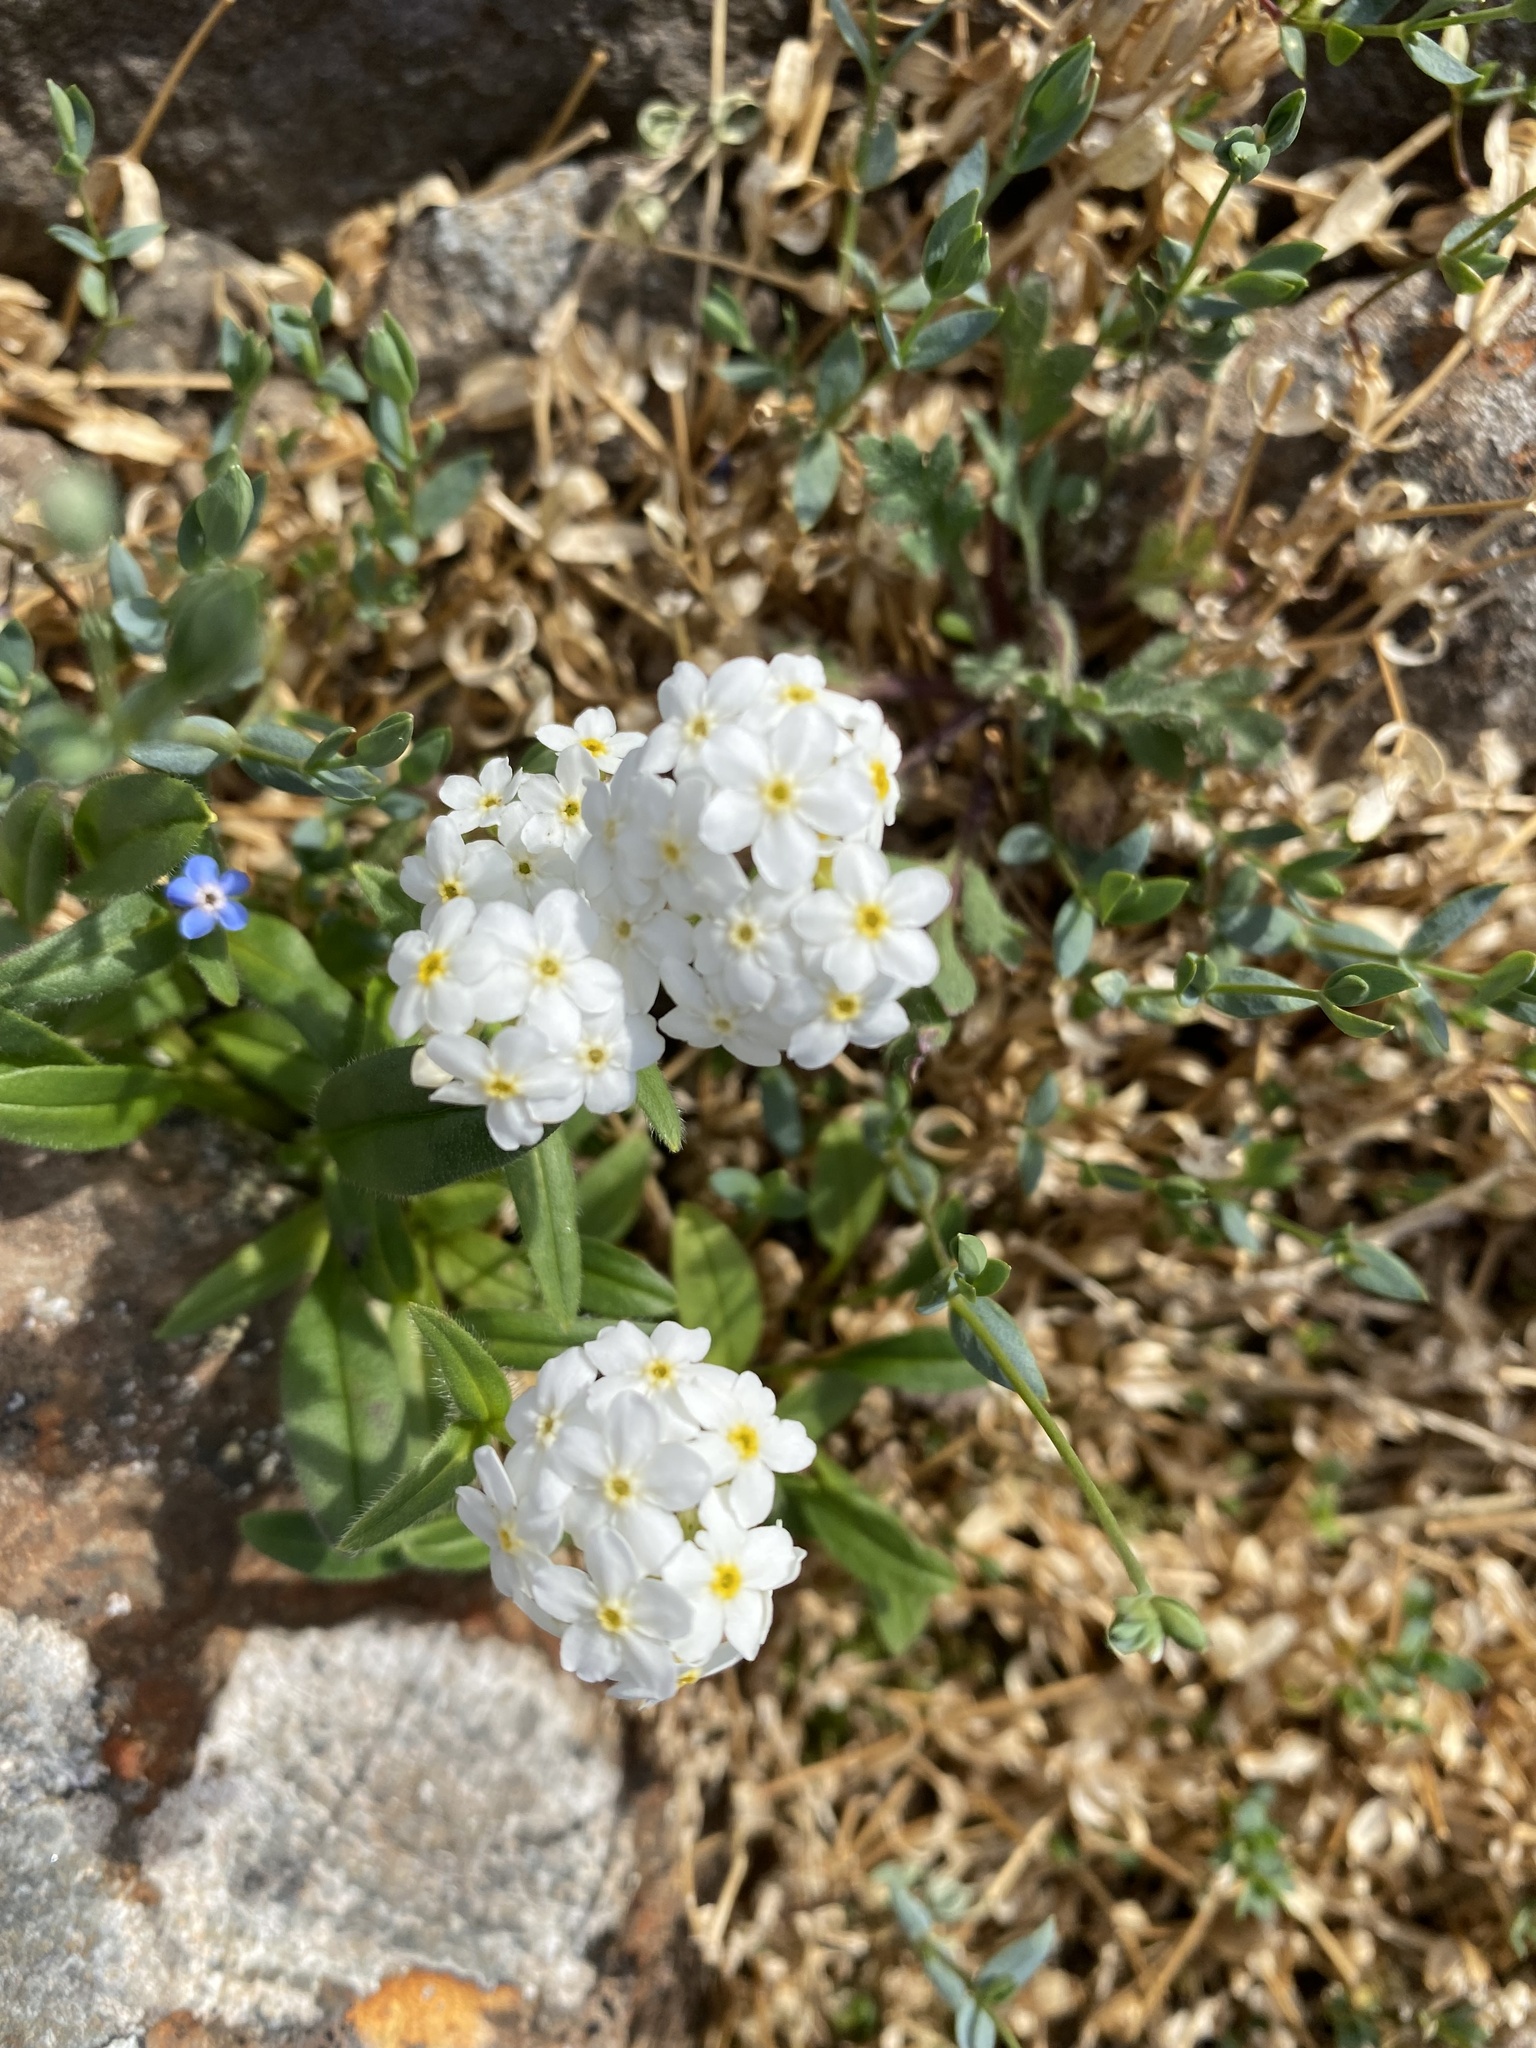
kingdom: Plantae
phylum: Tracheophyta
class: Magnoliopsida
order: Boraginales
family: Boraginaceae
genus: Myosotis
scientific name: Myosotis asiatica
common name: Asian forget-me-not
